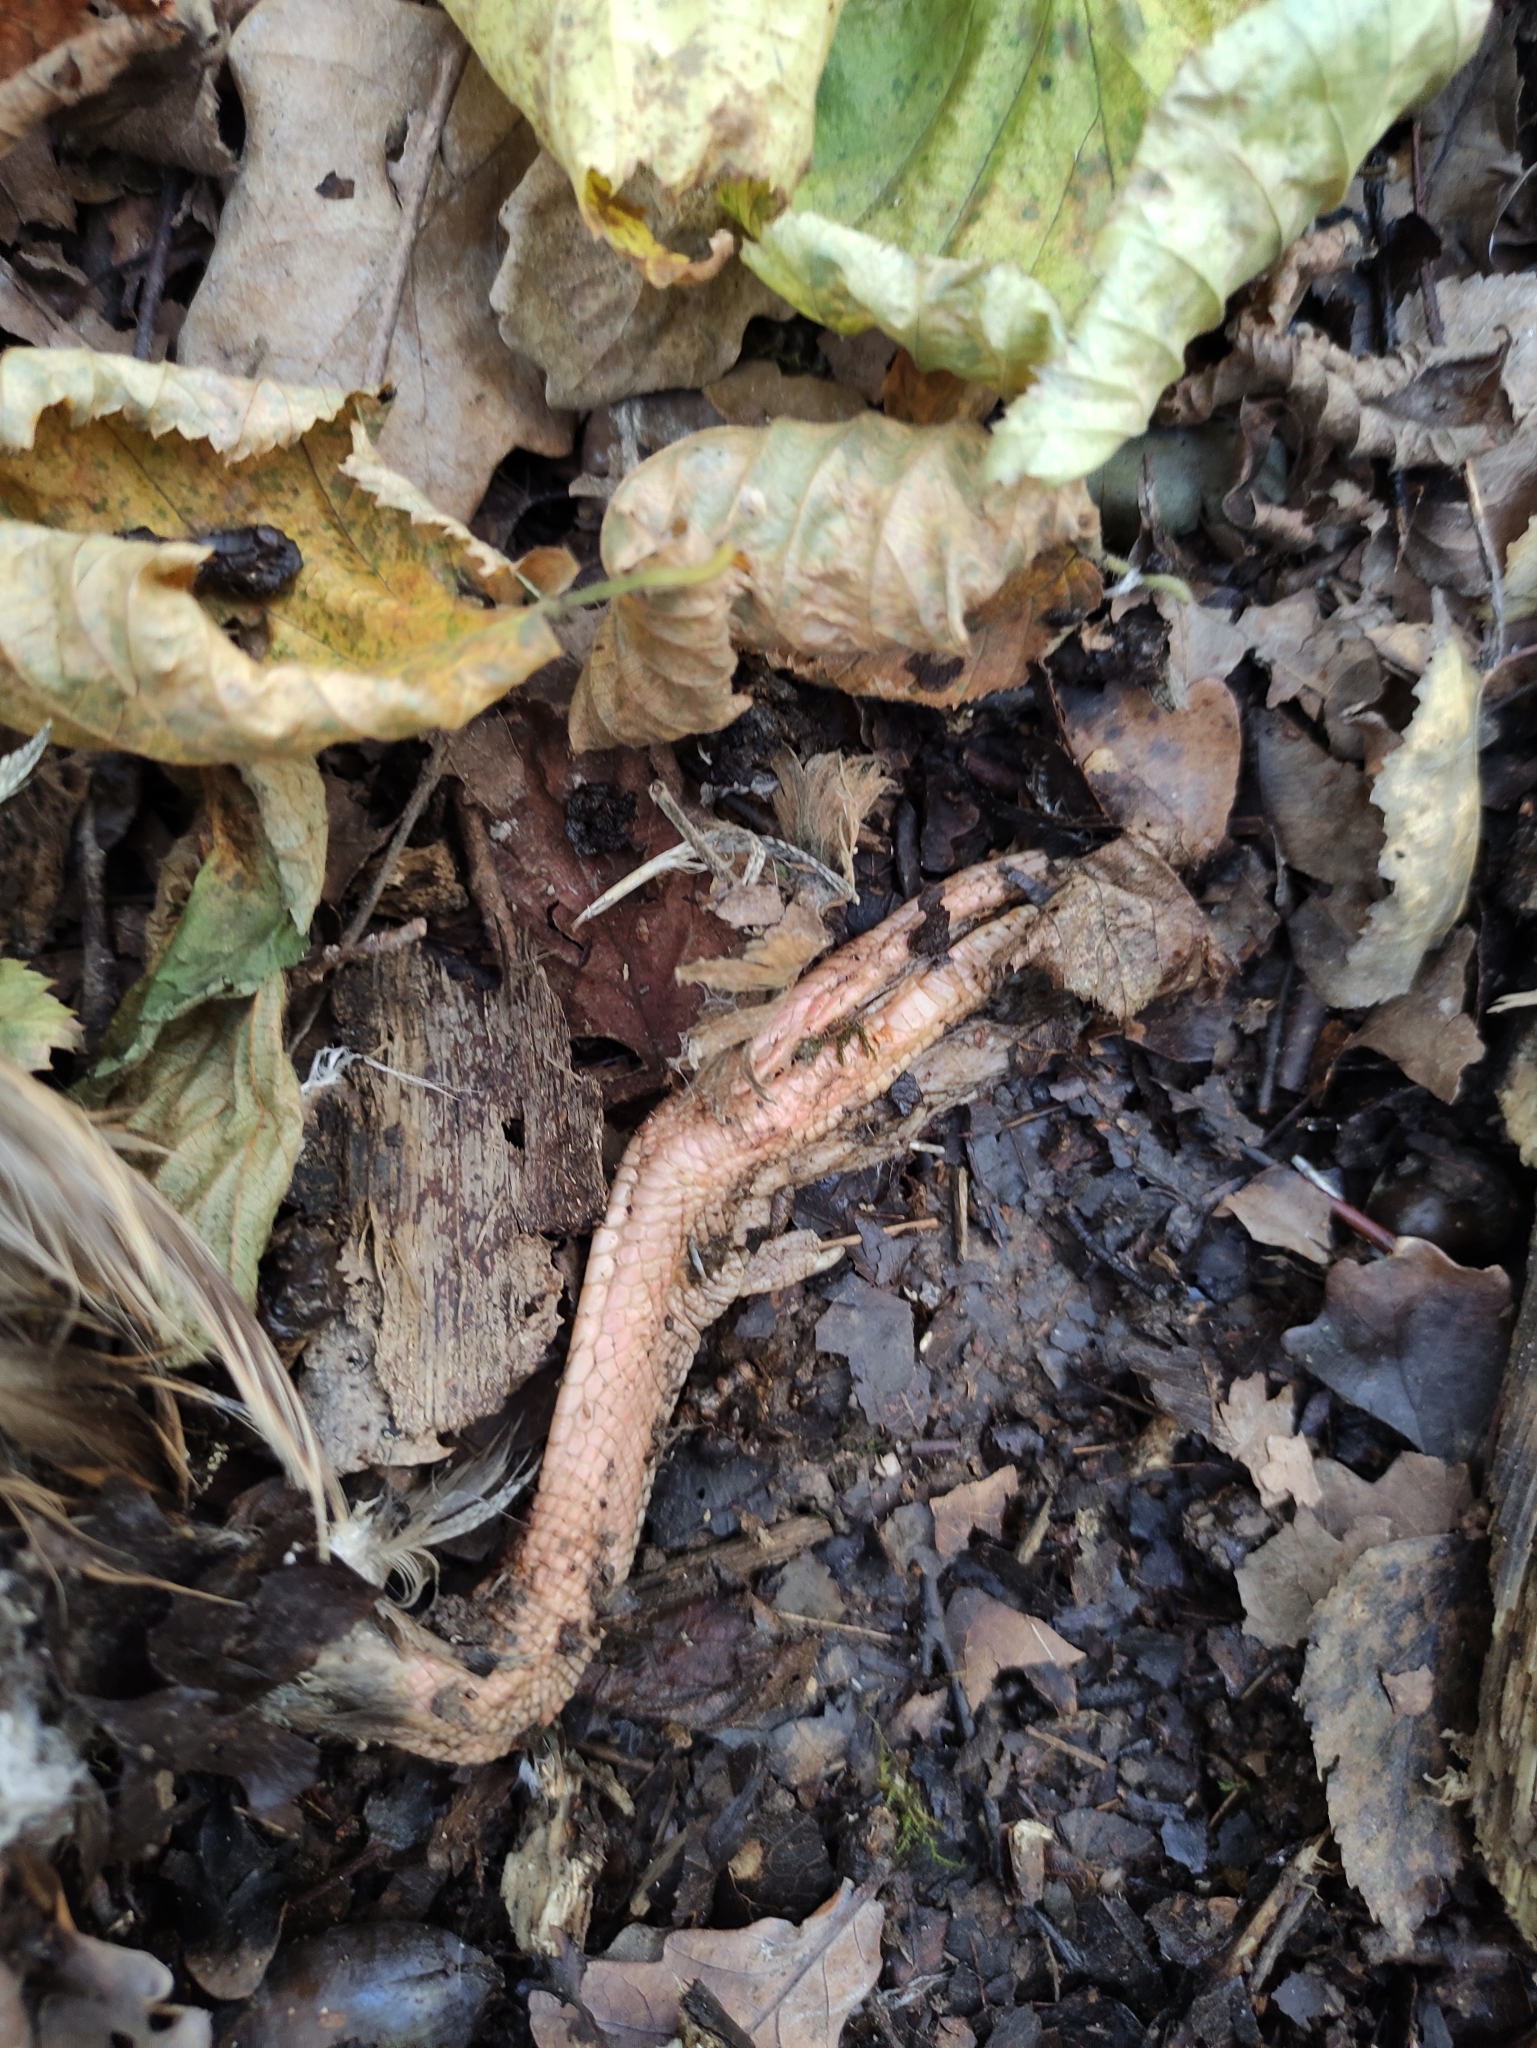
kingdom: Animalia
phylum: Chordata
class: Aves
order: Anseriformes
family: Anatidae
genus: Anas
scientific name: Anas platyrhynchos
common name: Mallard
